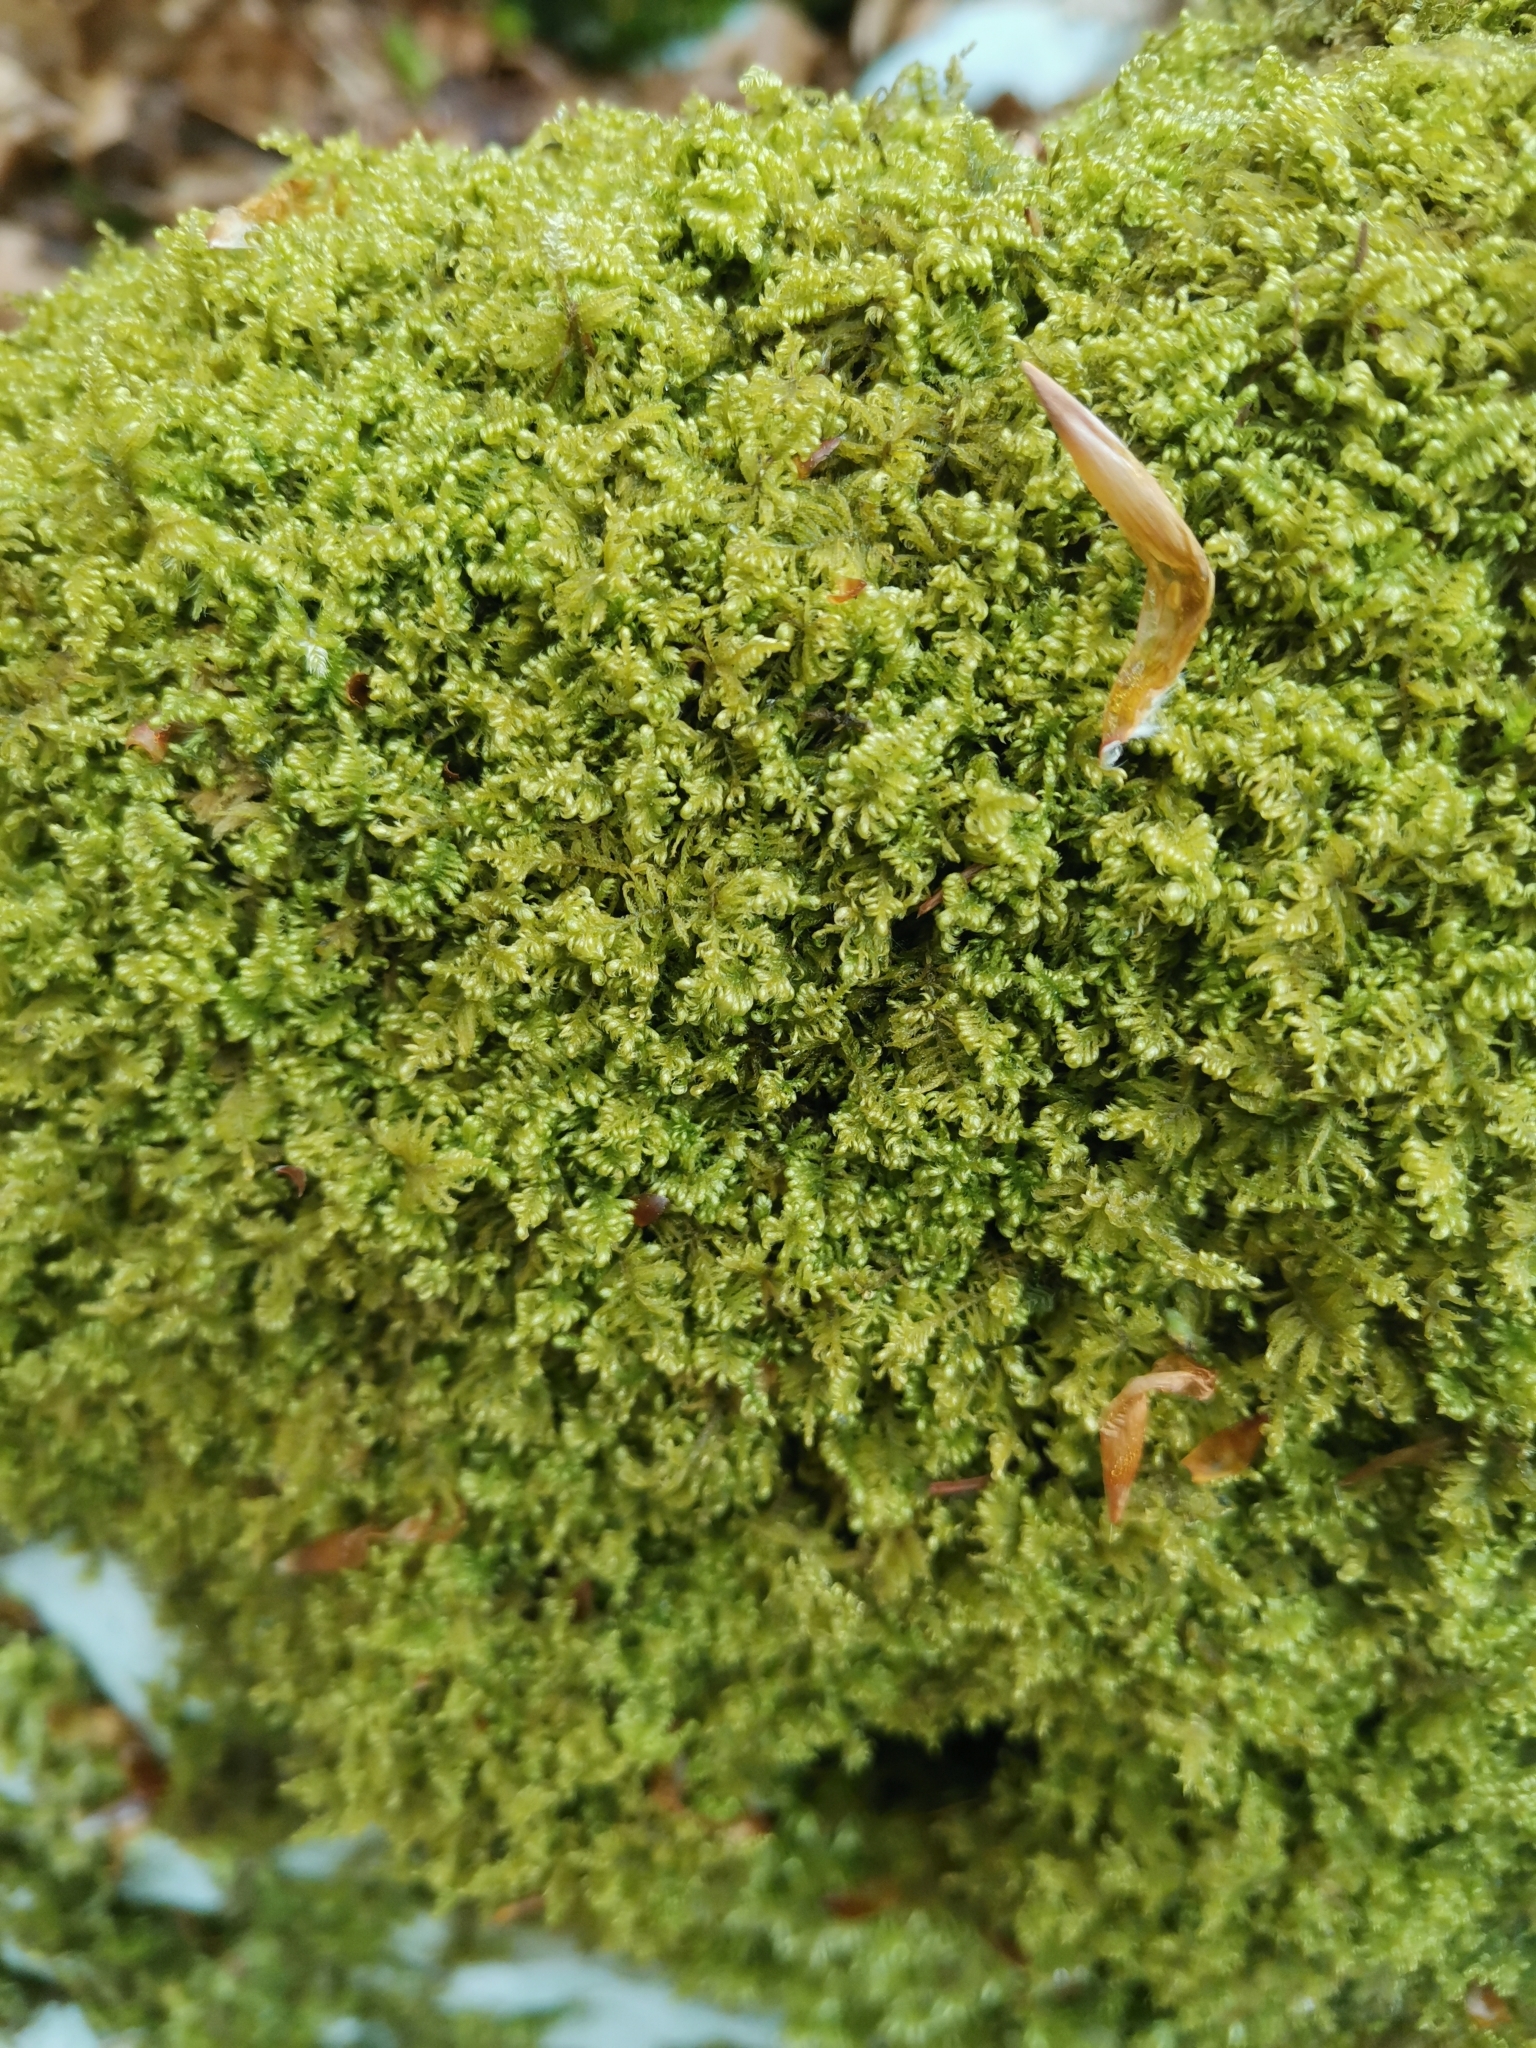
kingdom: Plantae
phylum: Bryophyta
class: Bryopsida
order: Hypnales
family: Myuriaceae
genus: Ctenidium
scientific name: Ctenidium molluscum
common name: Chalk comb-moss
